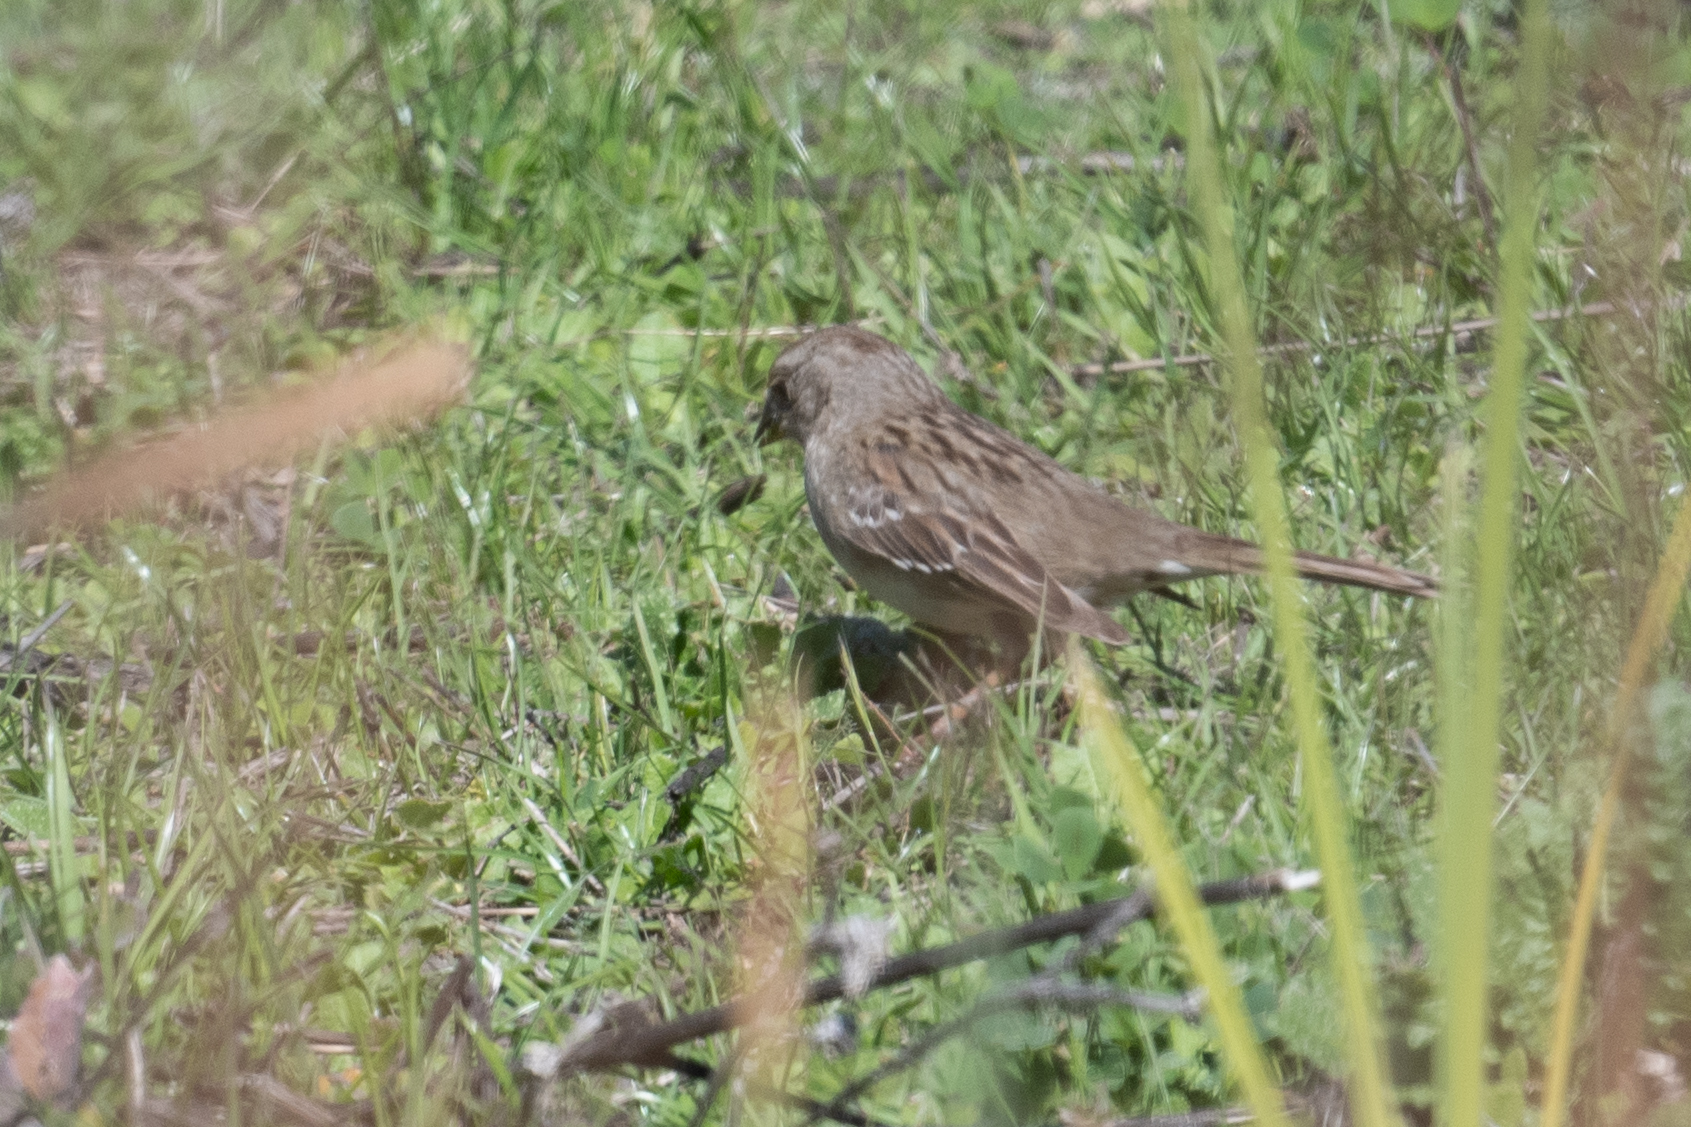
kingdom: Animalia
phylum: Chordata
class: Aves
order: Passeriformes
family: Passerellidae
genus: Zonotrichia
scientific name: Zonotrichia atricapilla
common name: Golden-crowned sparrow
